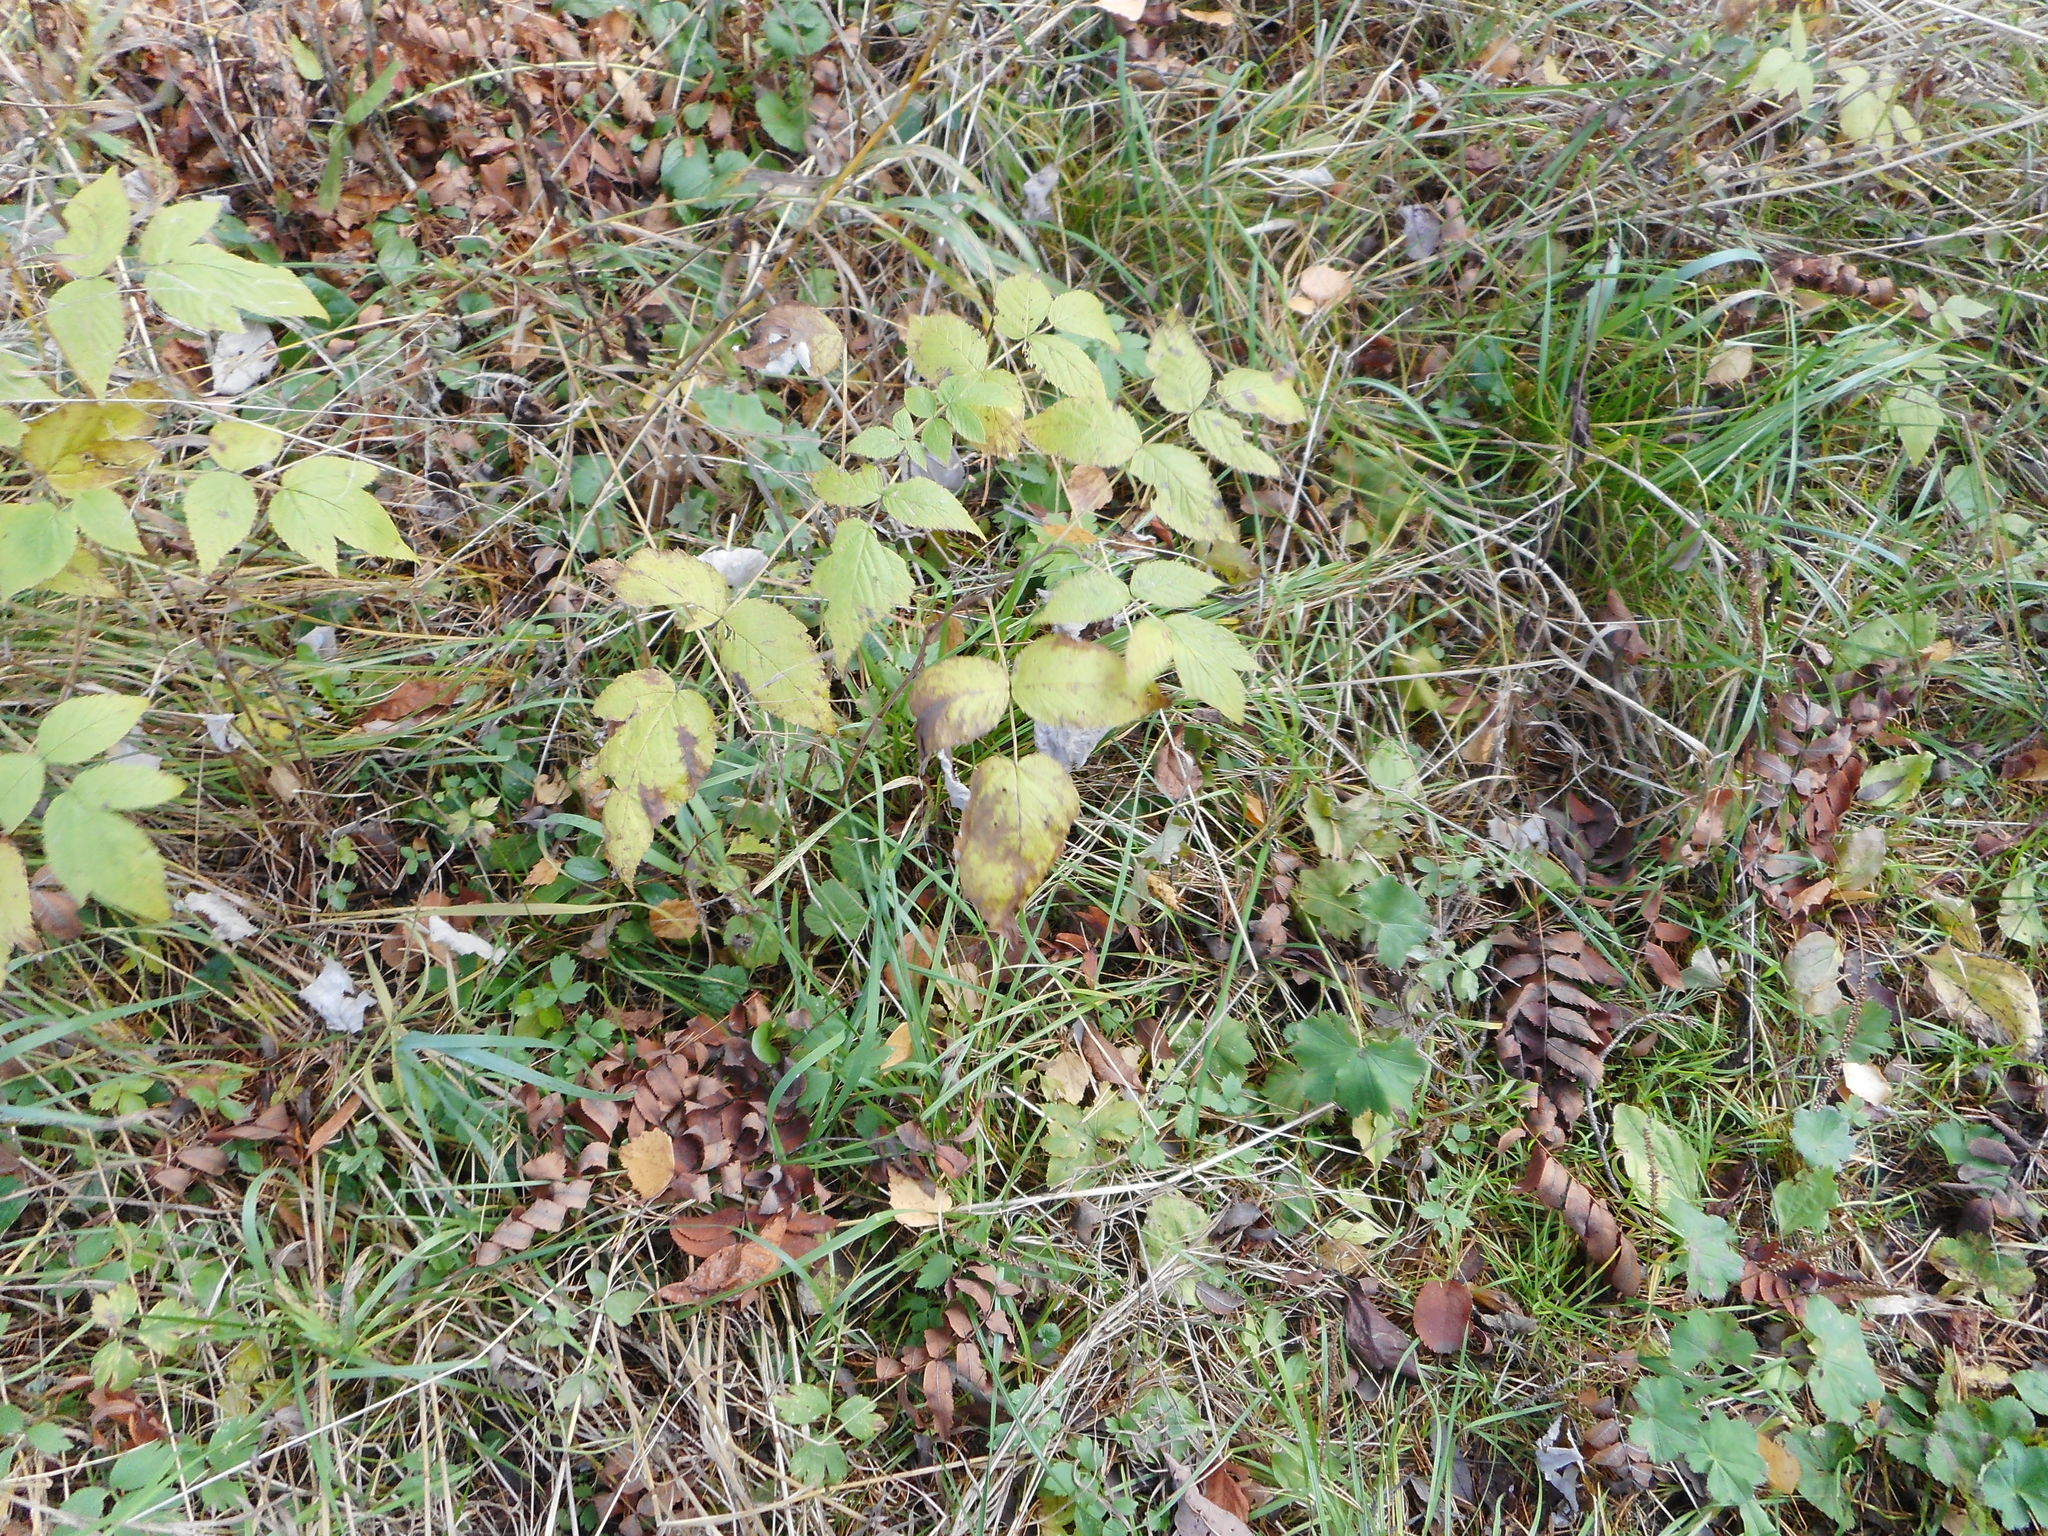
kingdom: Plantae
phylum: Tracheophyta
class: Magnoliopsida
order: Rosales
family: Rosaceae
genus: Rubus
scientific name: Rubus idaeus
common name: Raspberry
